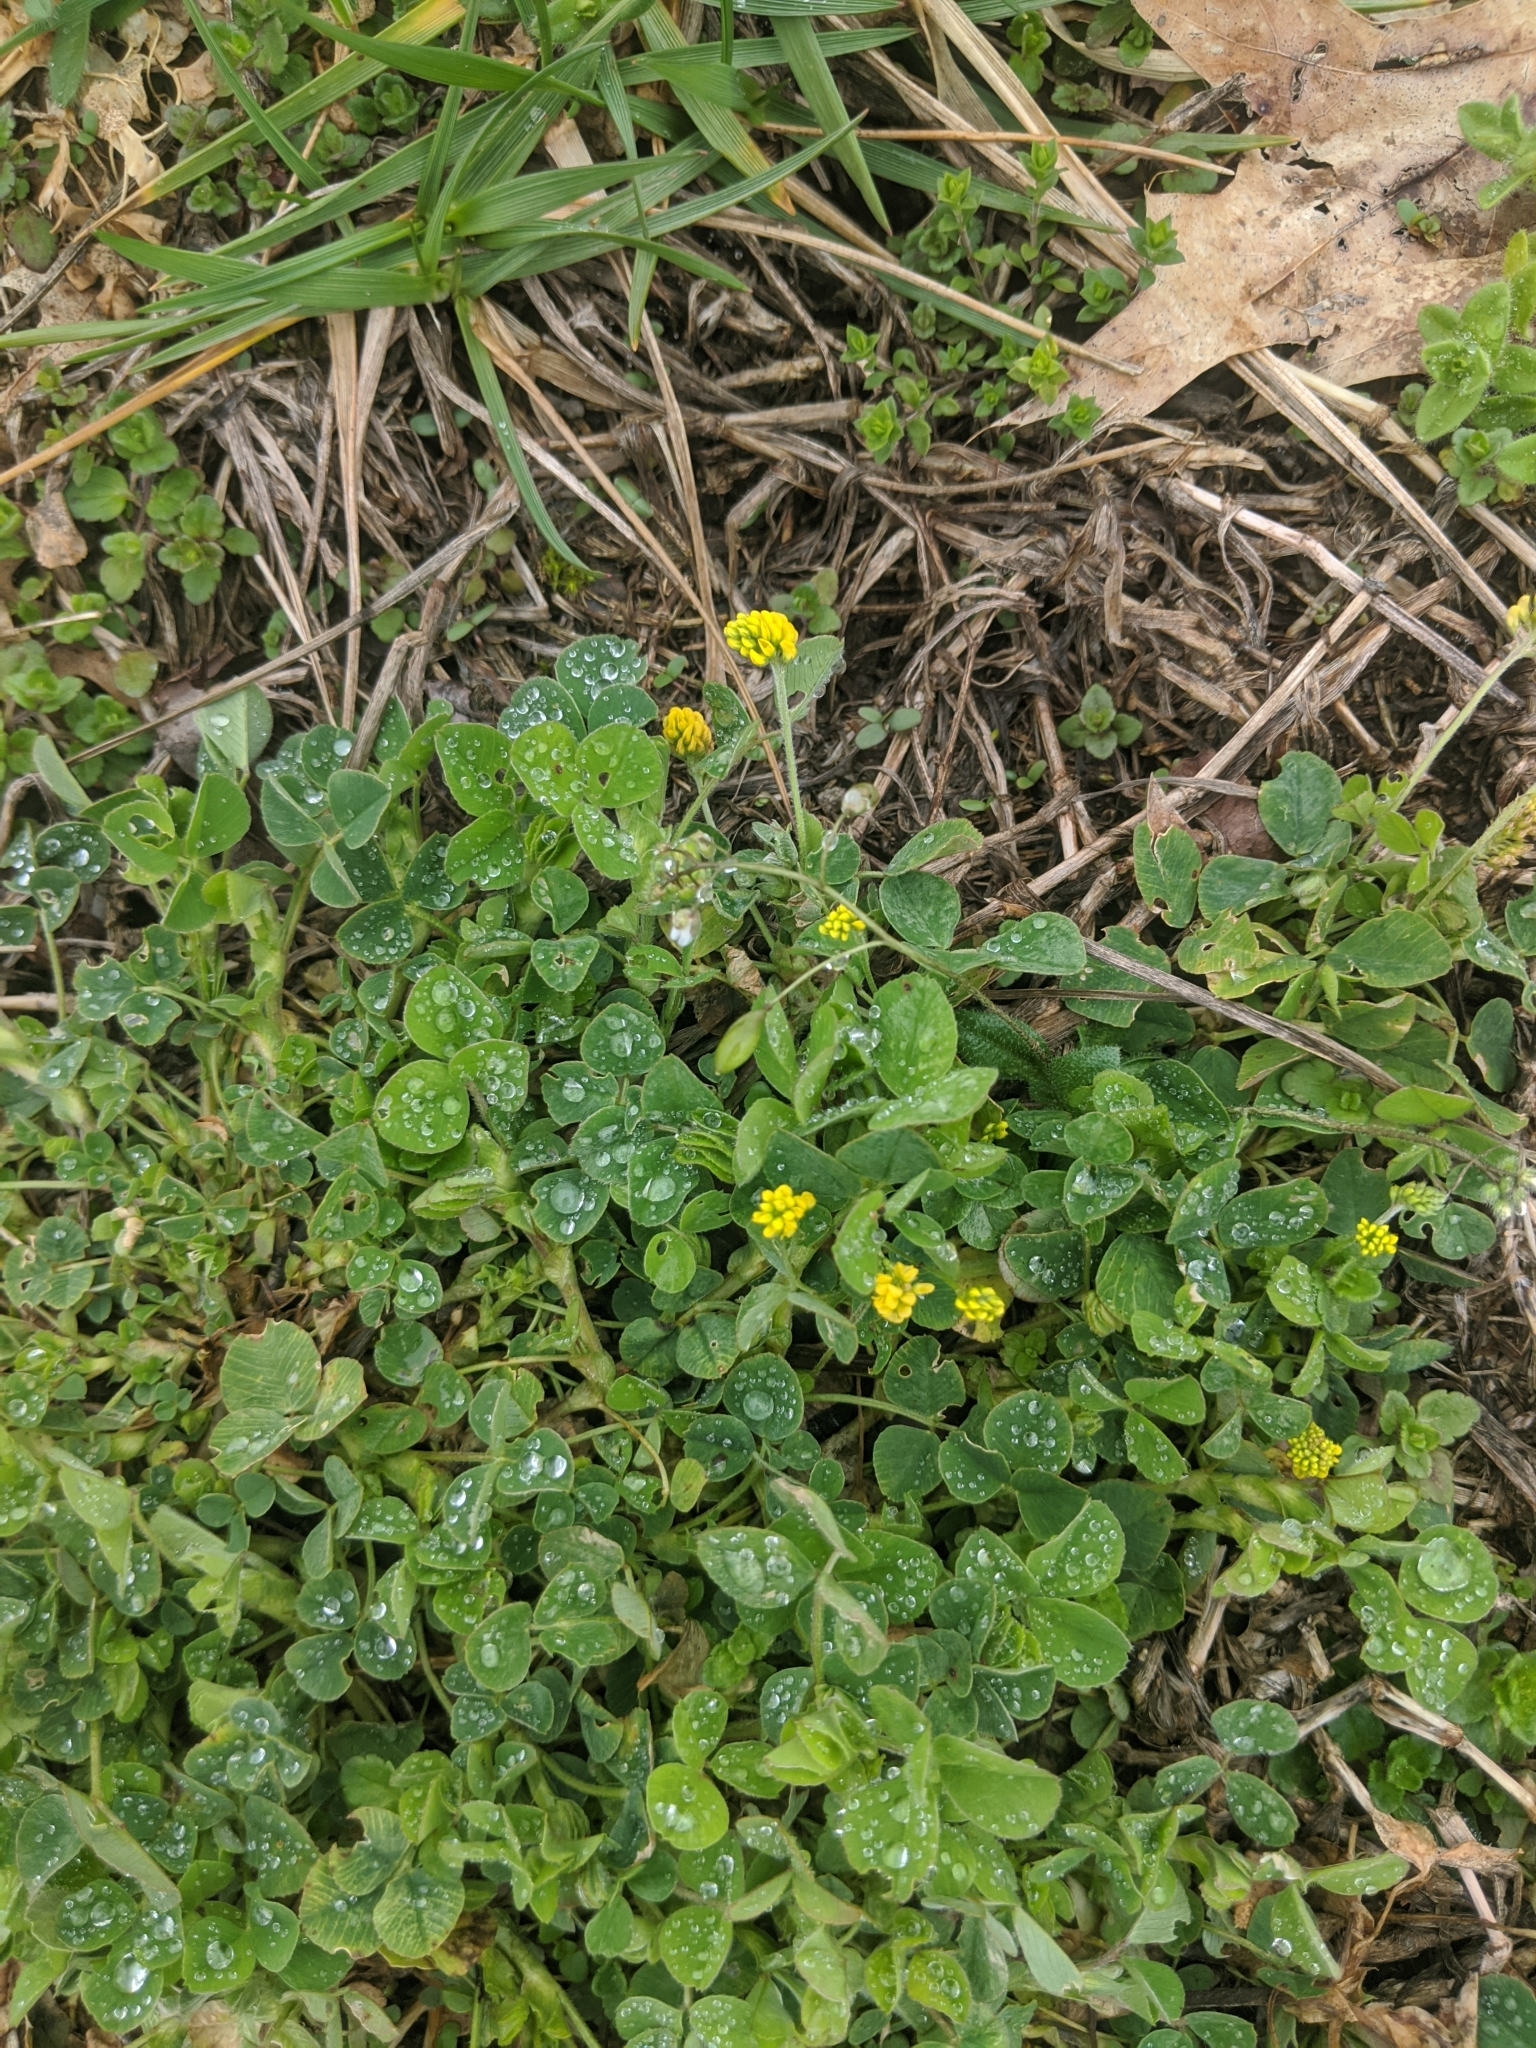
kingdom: Plantae
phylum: Tracheophyta
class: Magnoliopsida
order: Fabales
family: Fabaceae
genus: Medicago
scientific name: Medicago lupulina
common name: Black medick
